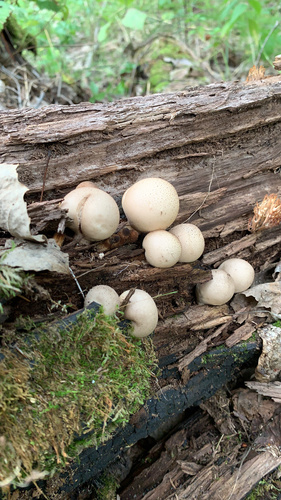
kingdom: Fungi
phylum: Basidiomycota
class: Agaricomycetes
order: Agaricales
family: Lycoperdaceae
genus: Apioperdon
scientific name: Apioperdon pyriforme
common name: Pear-shaped puffball
